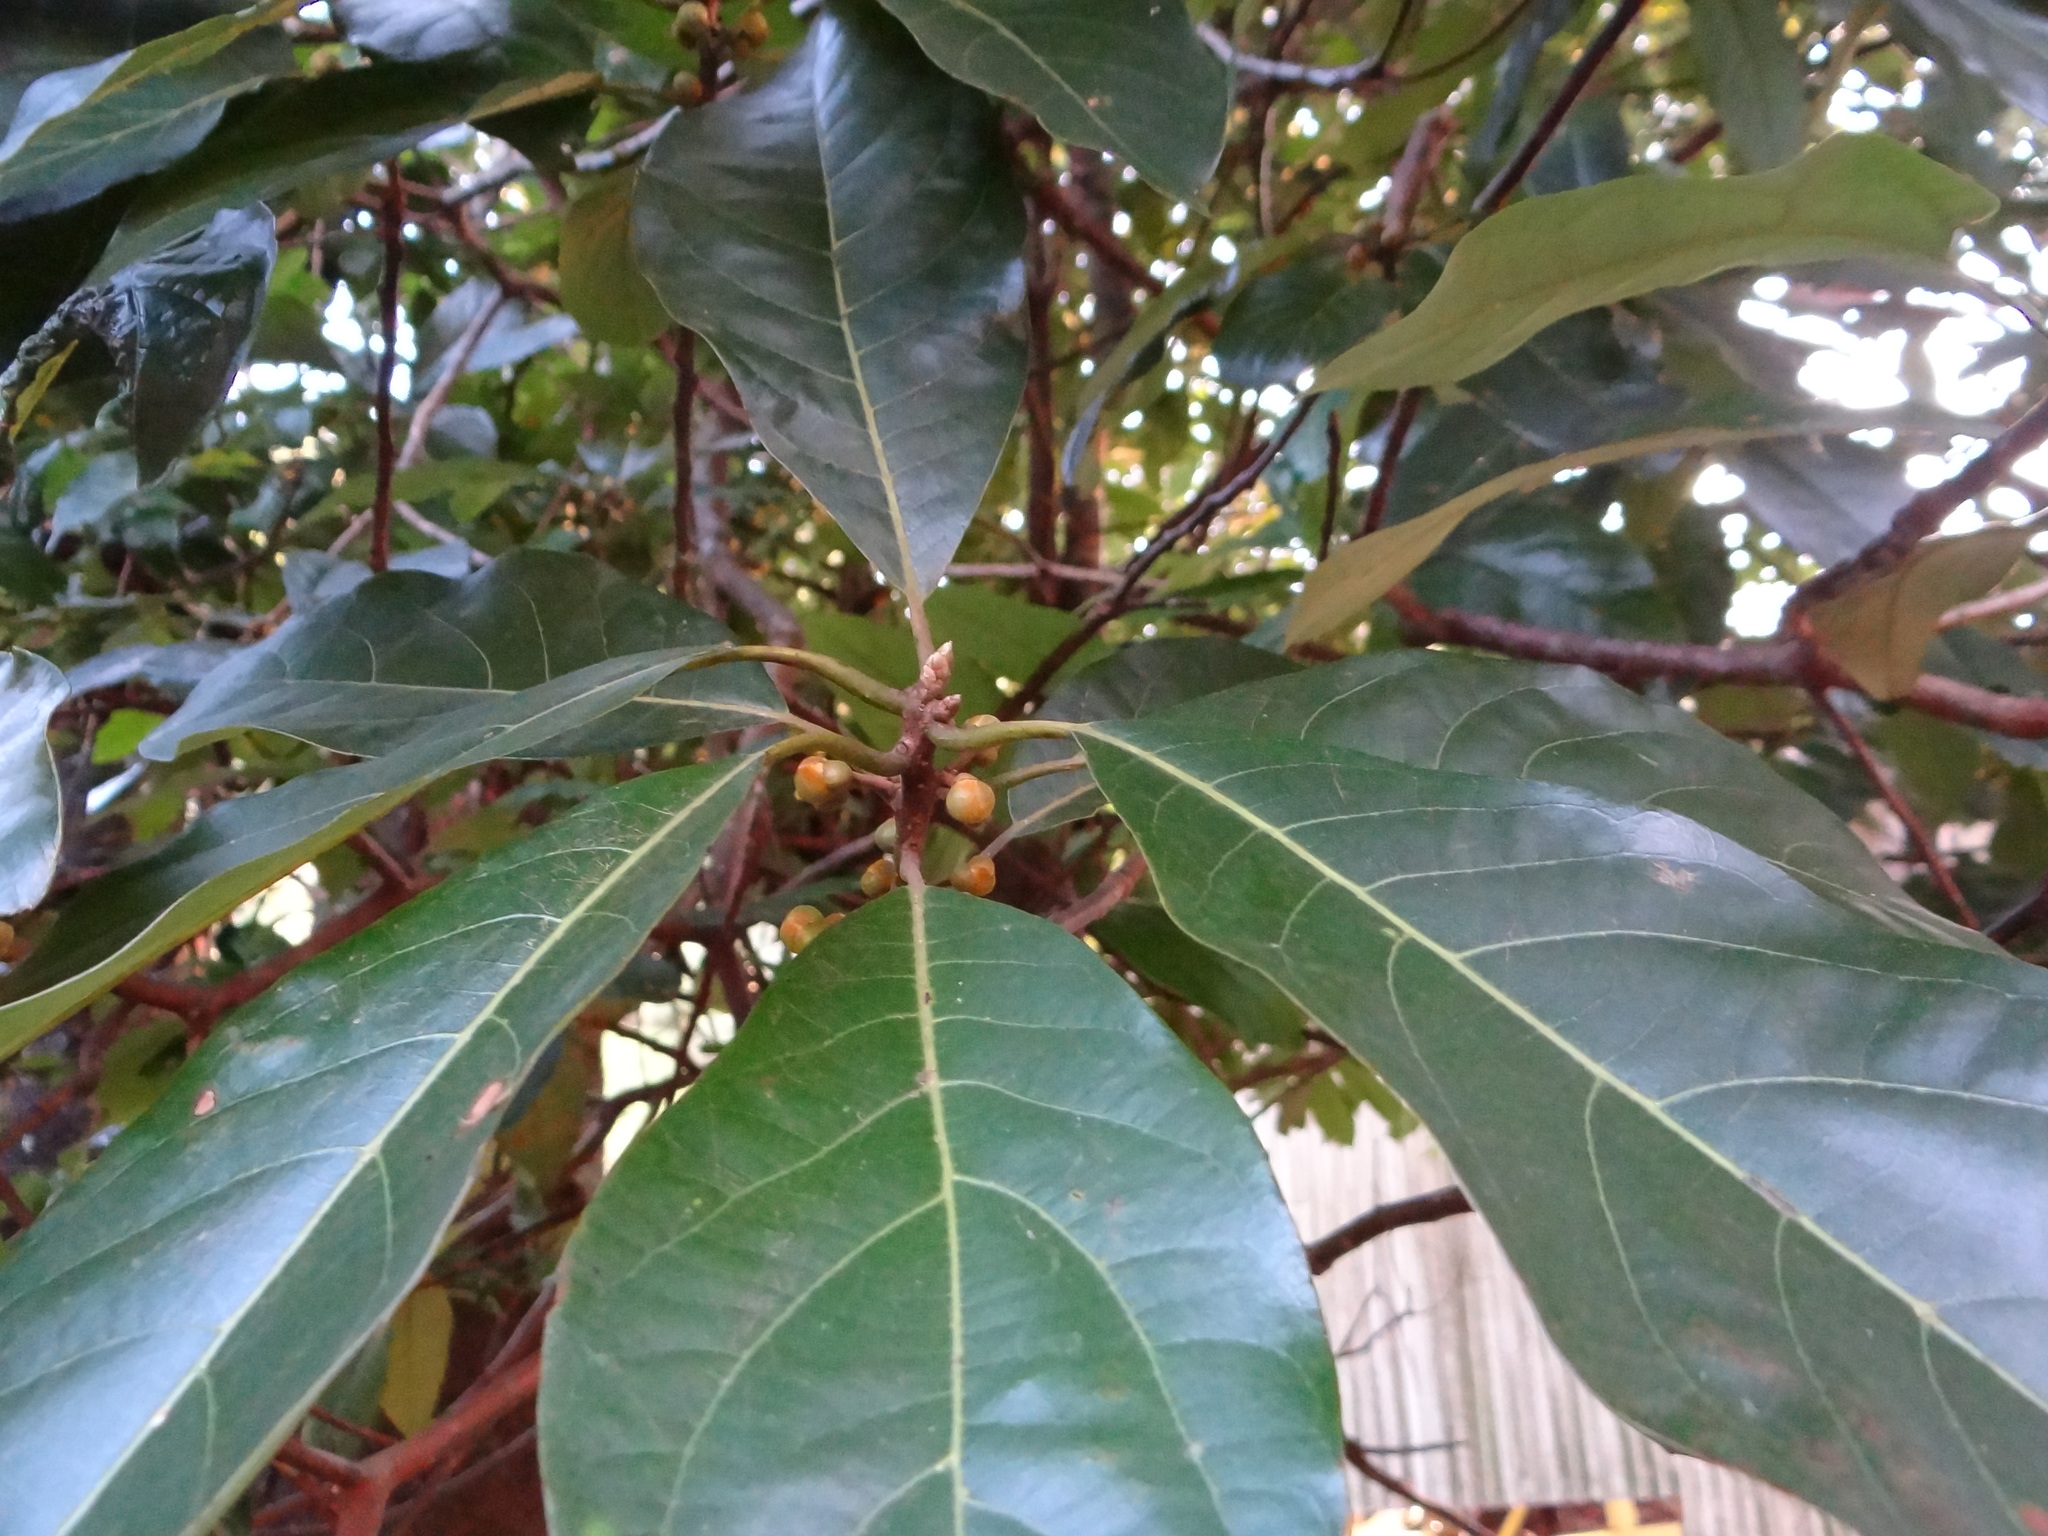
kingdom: Plantae
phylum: Tracheophyta
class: Magnoliopsida
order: Laurales
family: Lauraceae
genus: Lindera
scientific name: Lindera megaphylla
